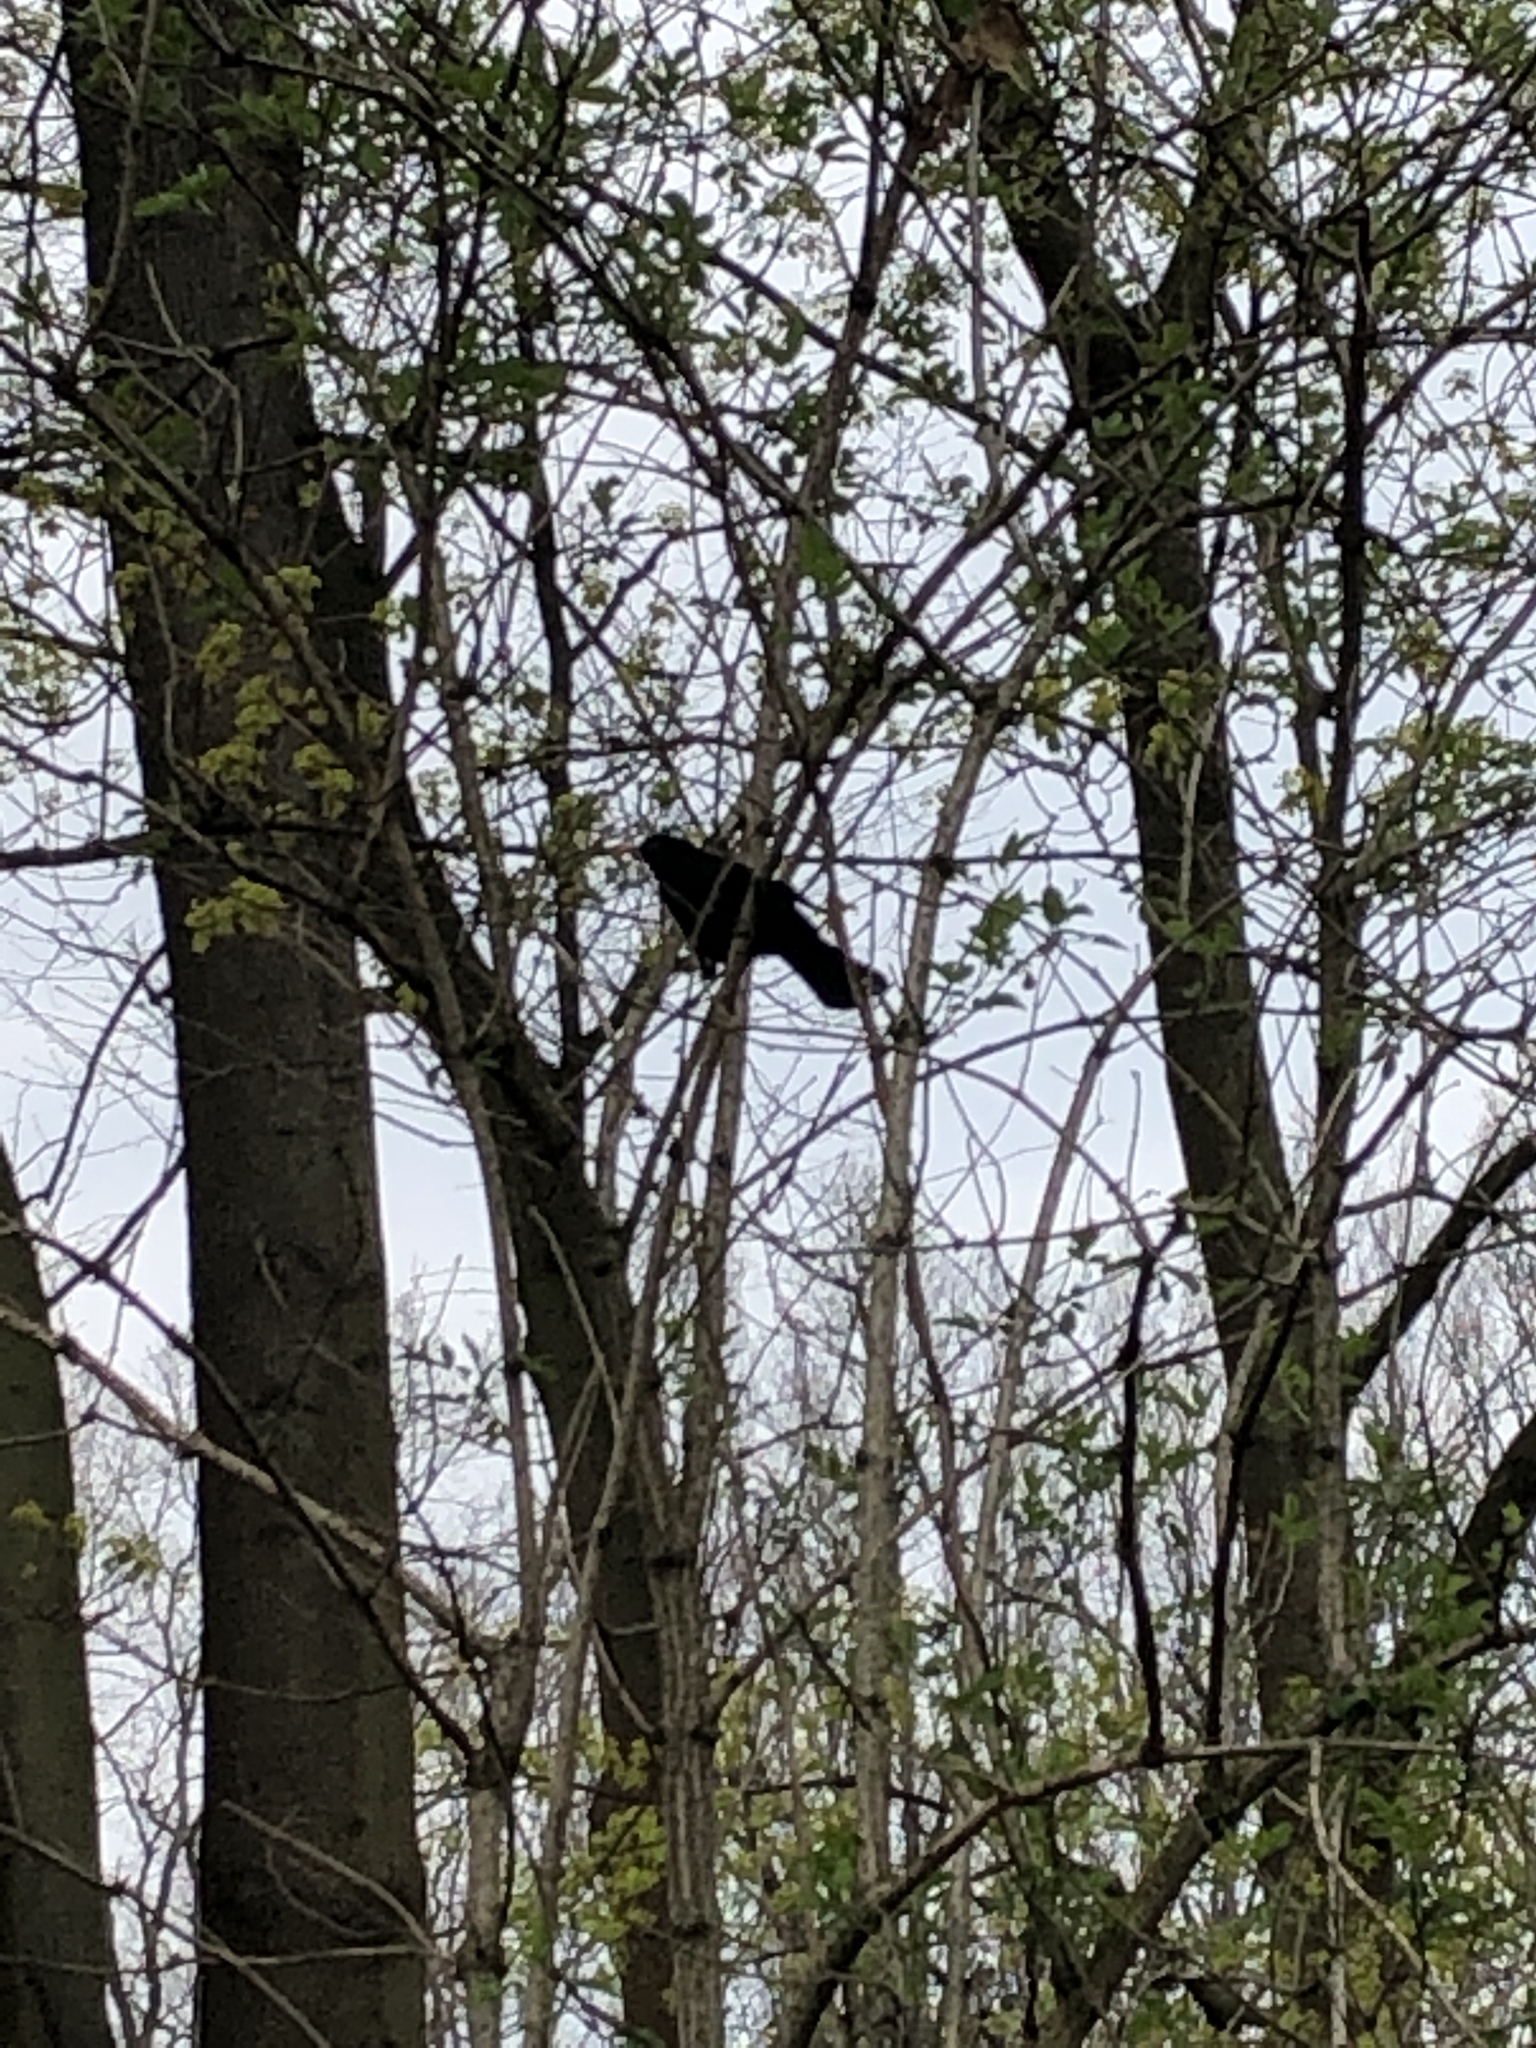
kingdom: Animalia
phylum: Chordata
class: Aves
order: Passeriformes
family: Turdidae
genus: Turdus
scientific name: Turdus merula
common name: Common blackbird
